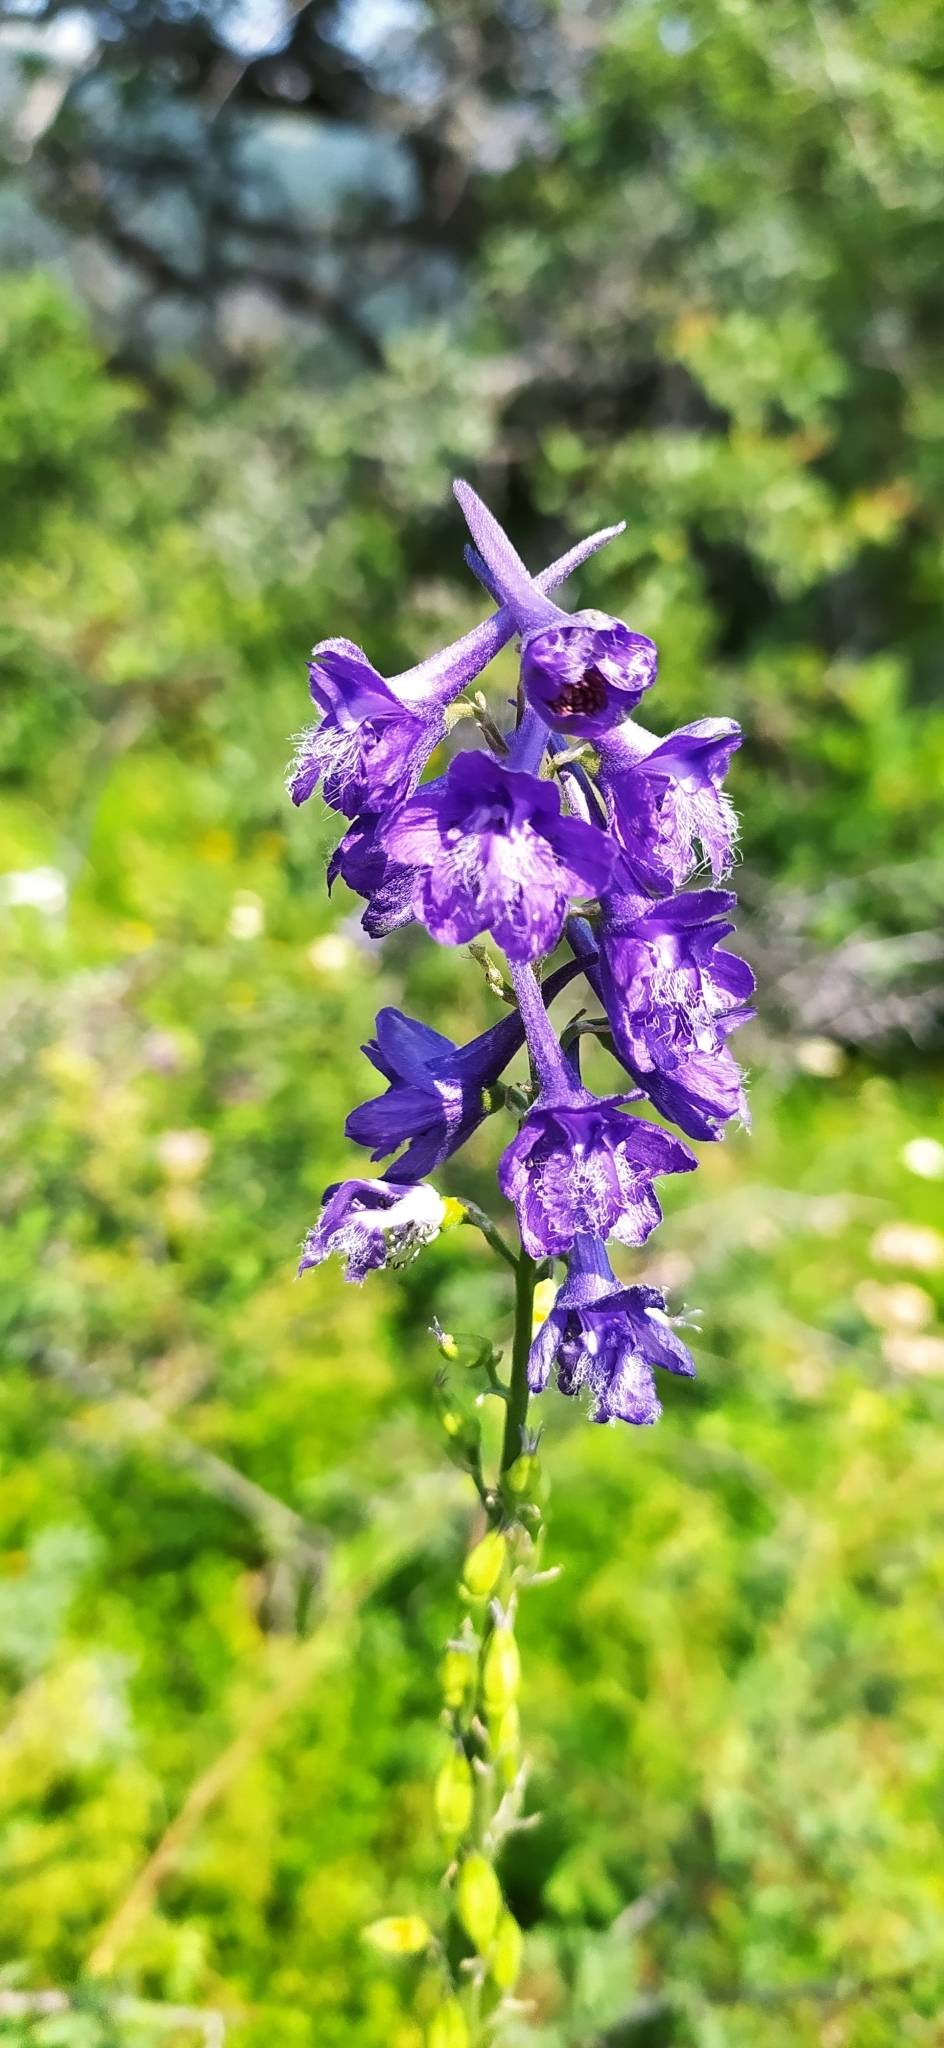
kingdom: Plantae
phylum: Tracheophyta
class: Magnoliopsida
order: Ranunculales
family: Ranunculaceae
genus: Delphinium
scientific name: Delphinium fissum
